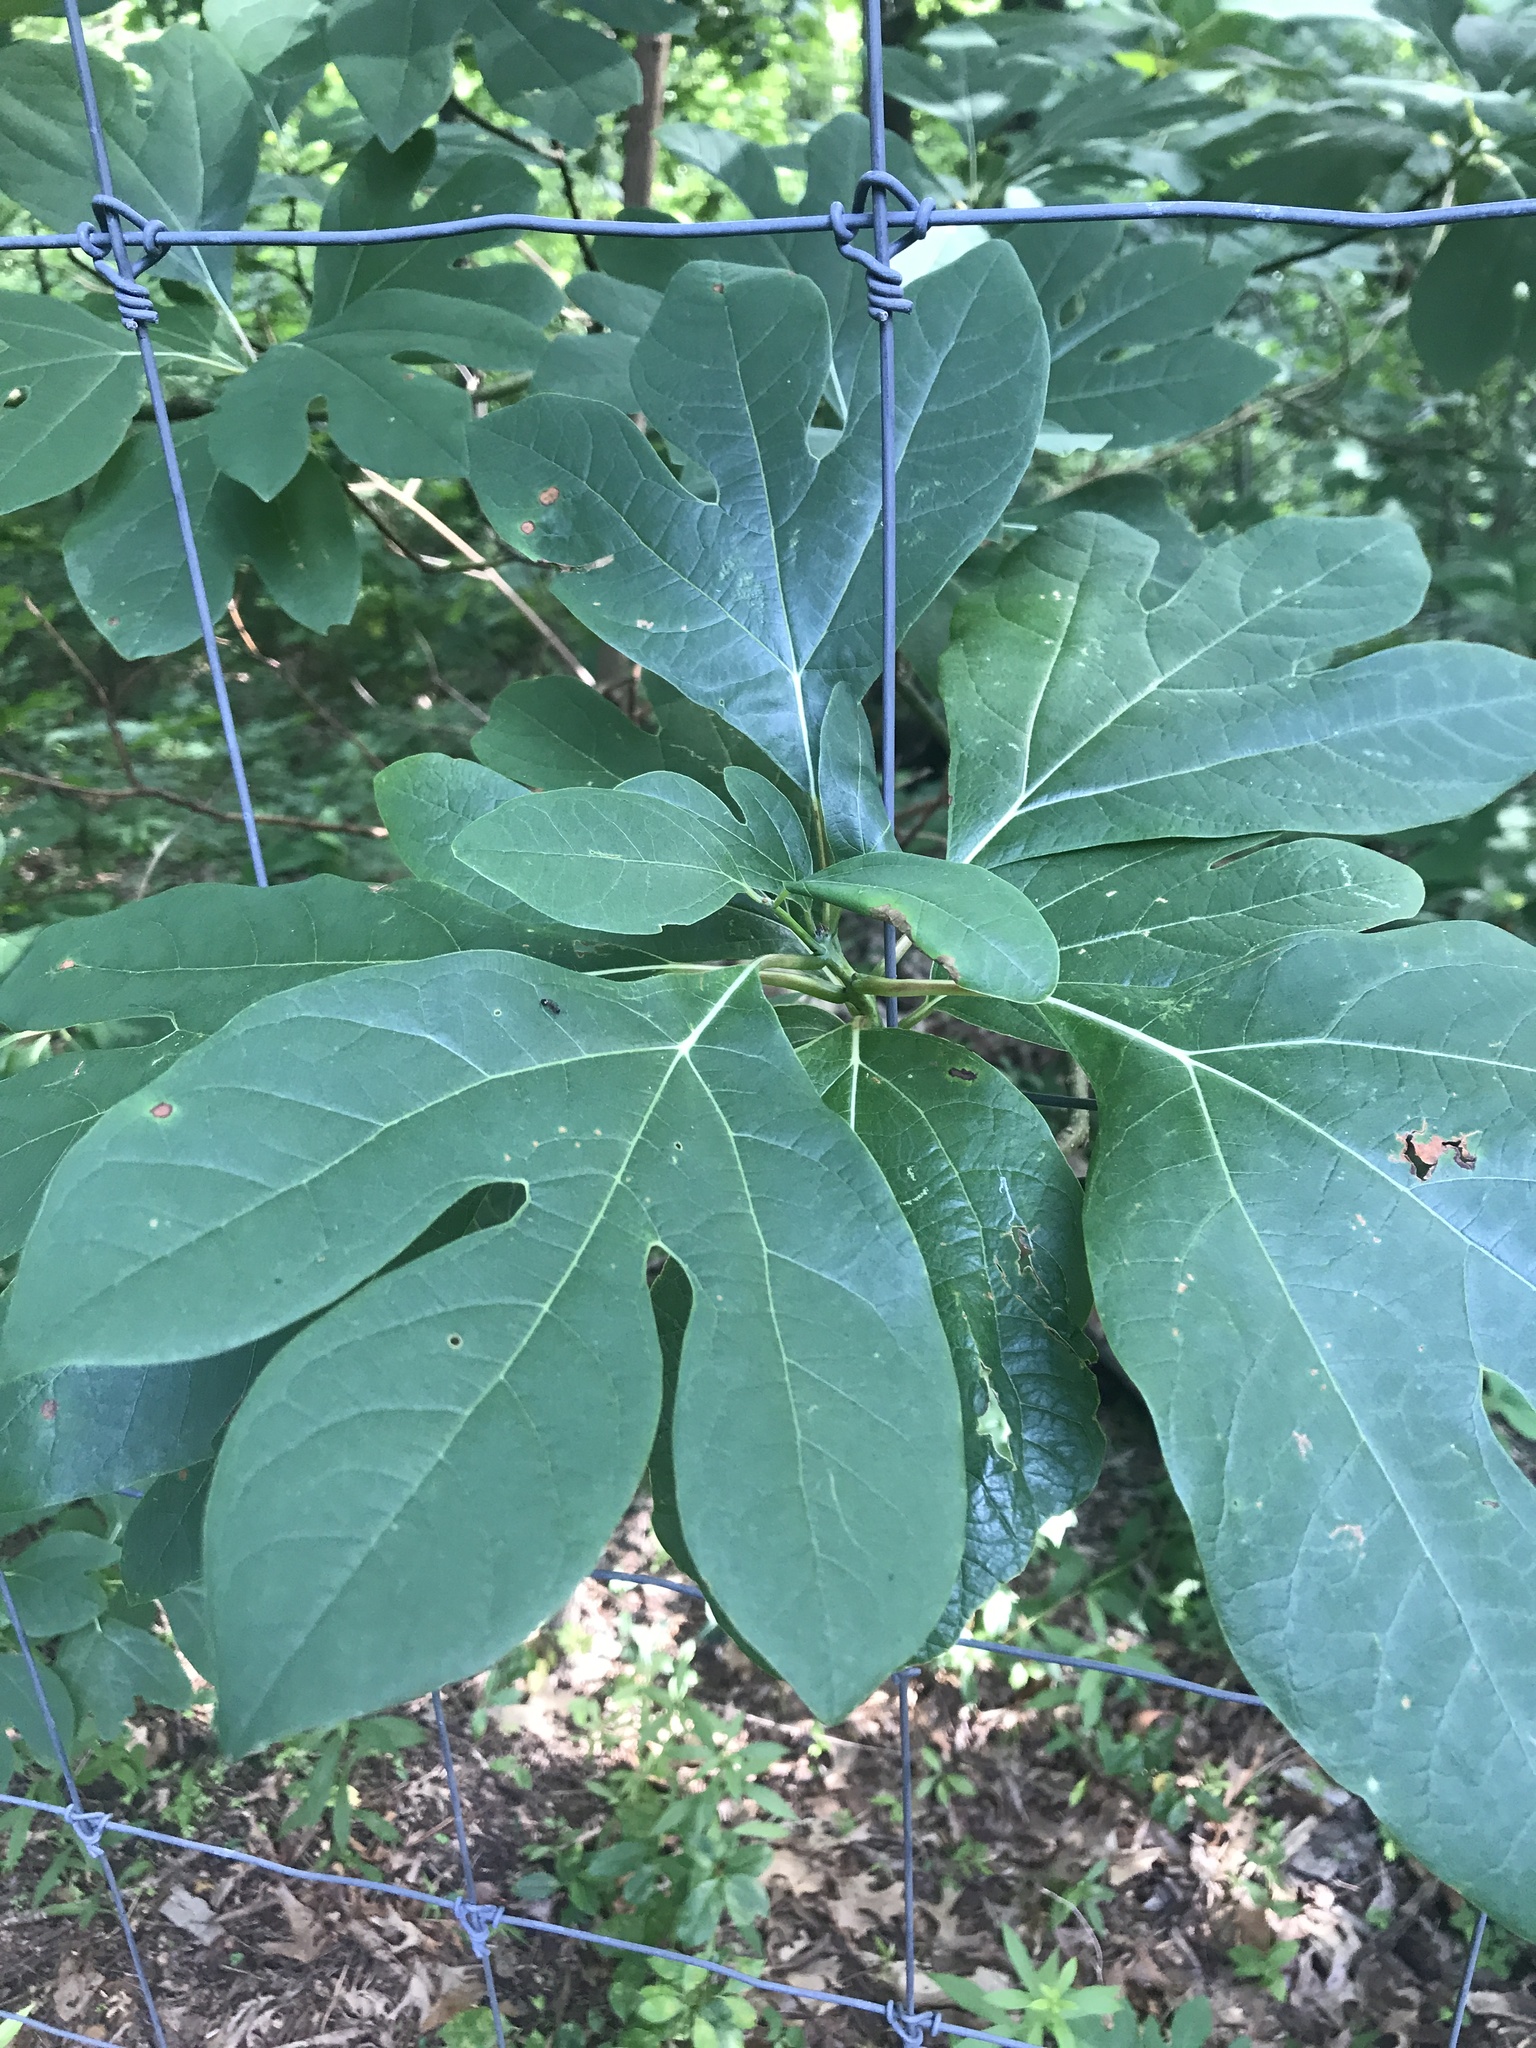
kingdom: Plantae
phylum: Tracheophyta
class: Magnoliopsida
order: Laurales
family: Lauraceae
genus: Sassafras
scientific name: Sassafras albidum
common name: Sassafras
